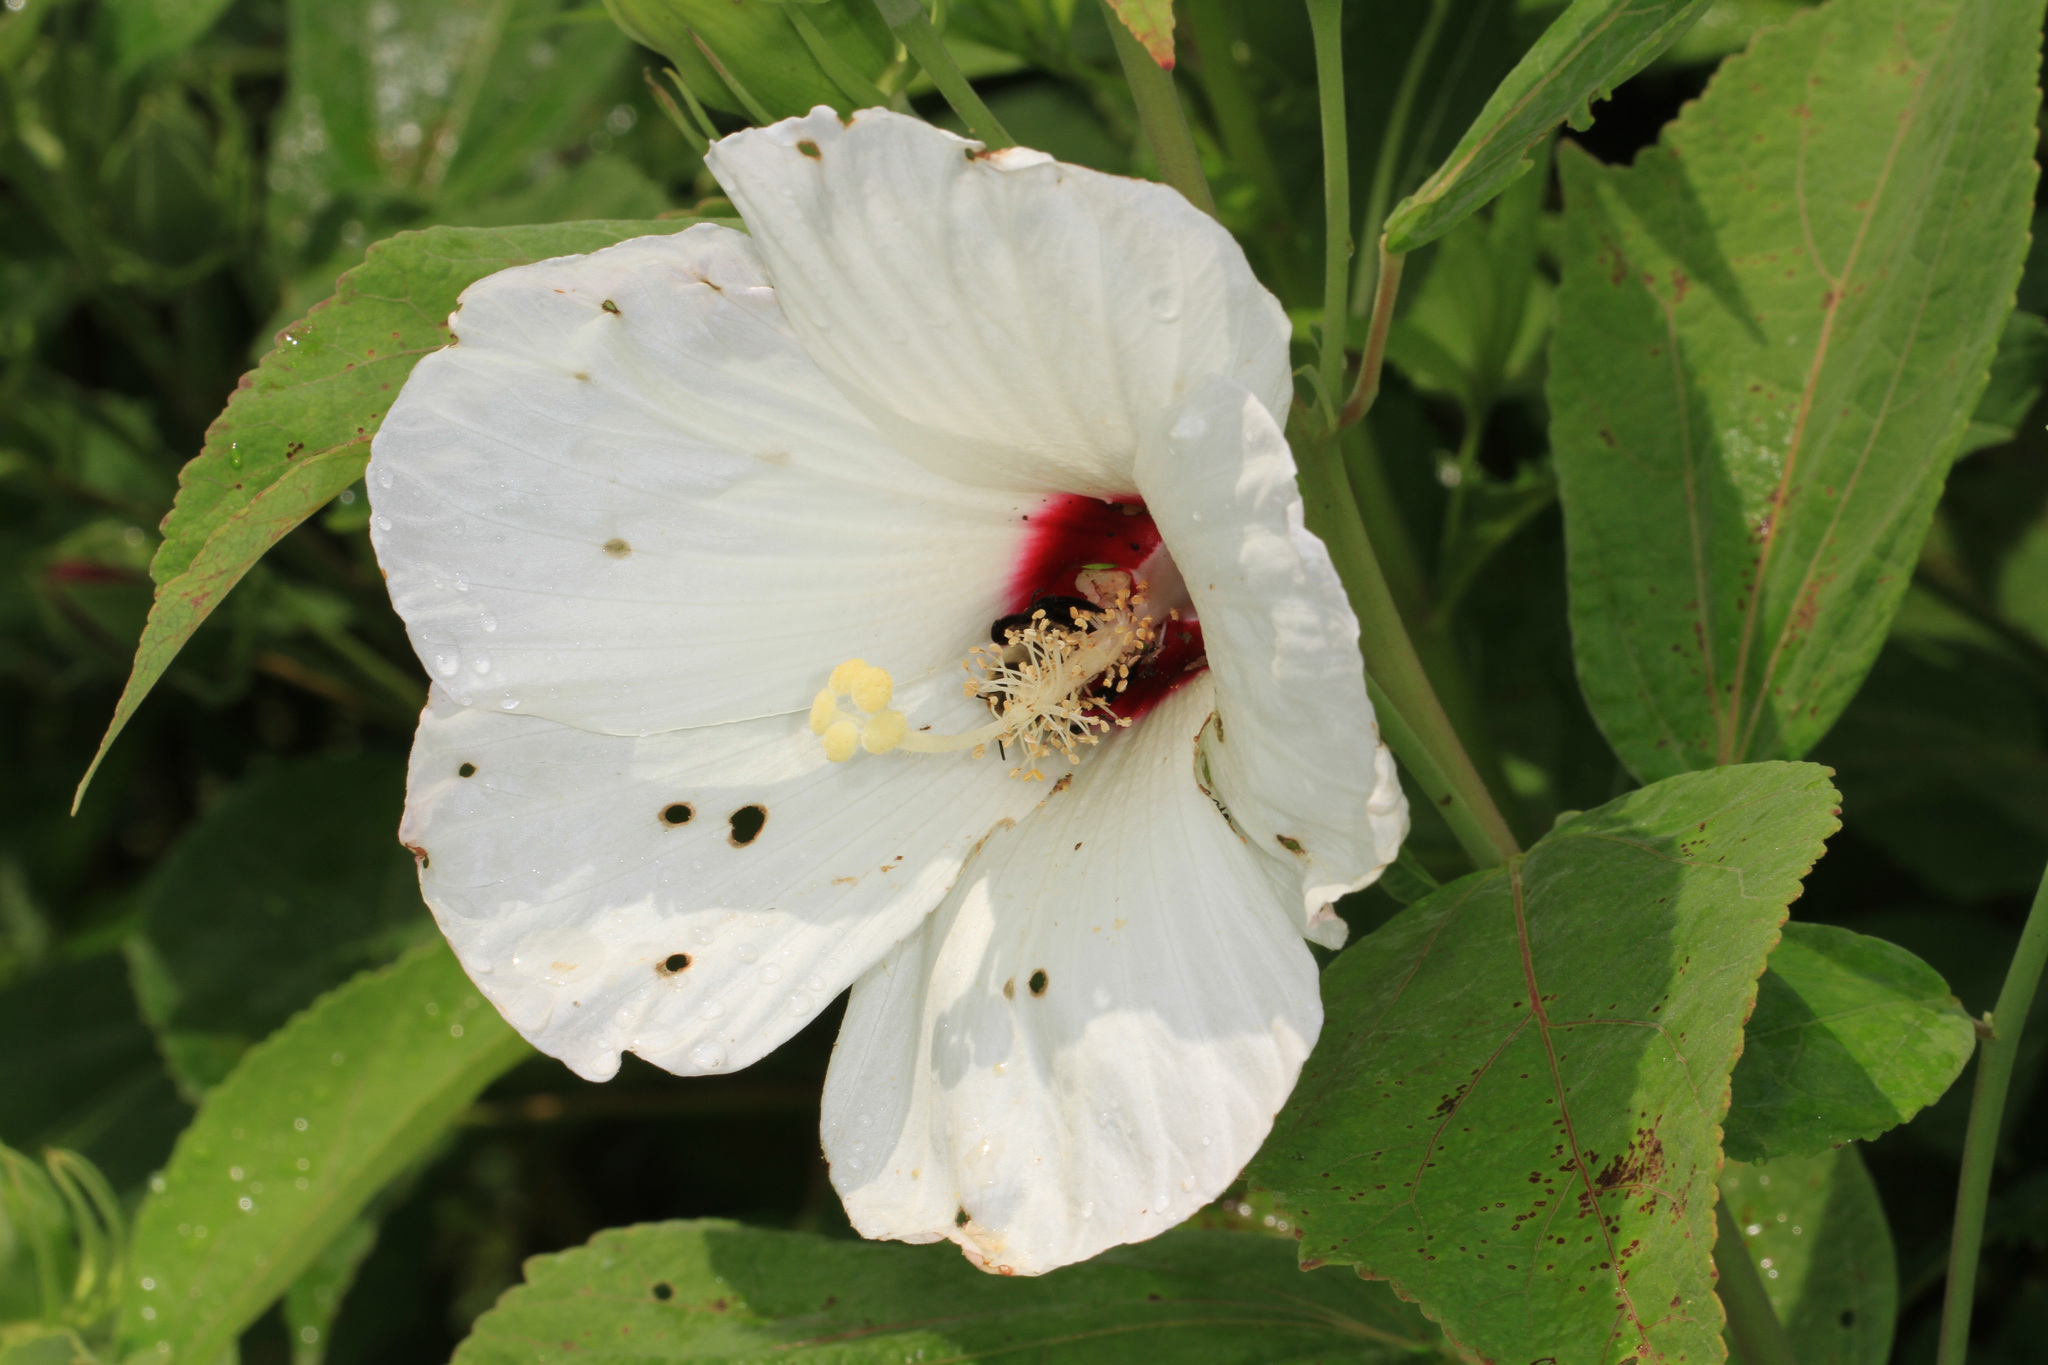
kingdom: Plantae
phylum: Tracheophyta
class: Magnoliopsida
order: Malvales
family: Malvaceae
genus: Hibiscus
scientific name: Hibiscus moscheutos
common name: Common rose-mallow
